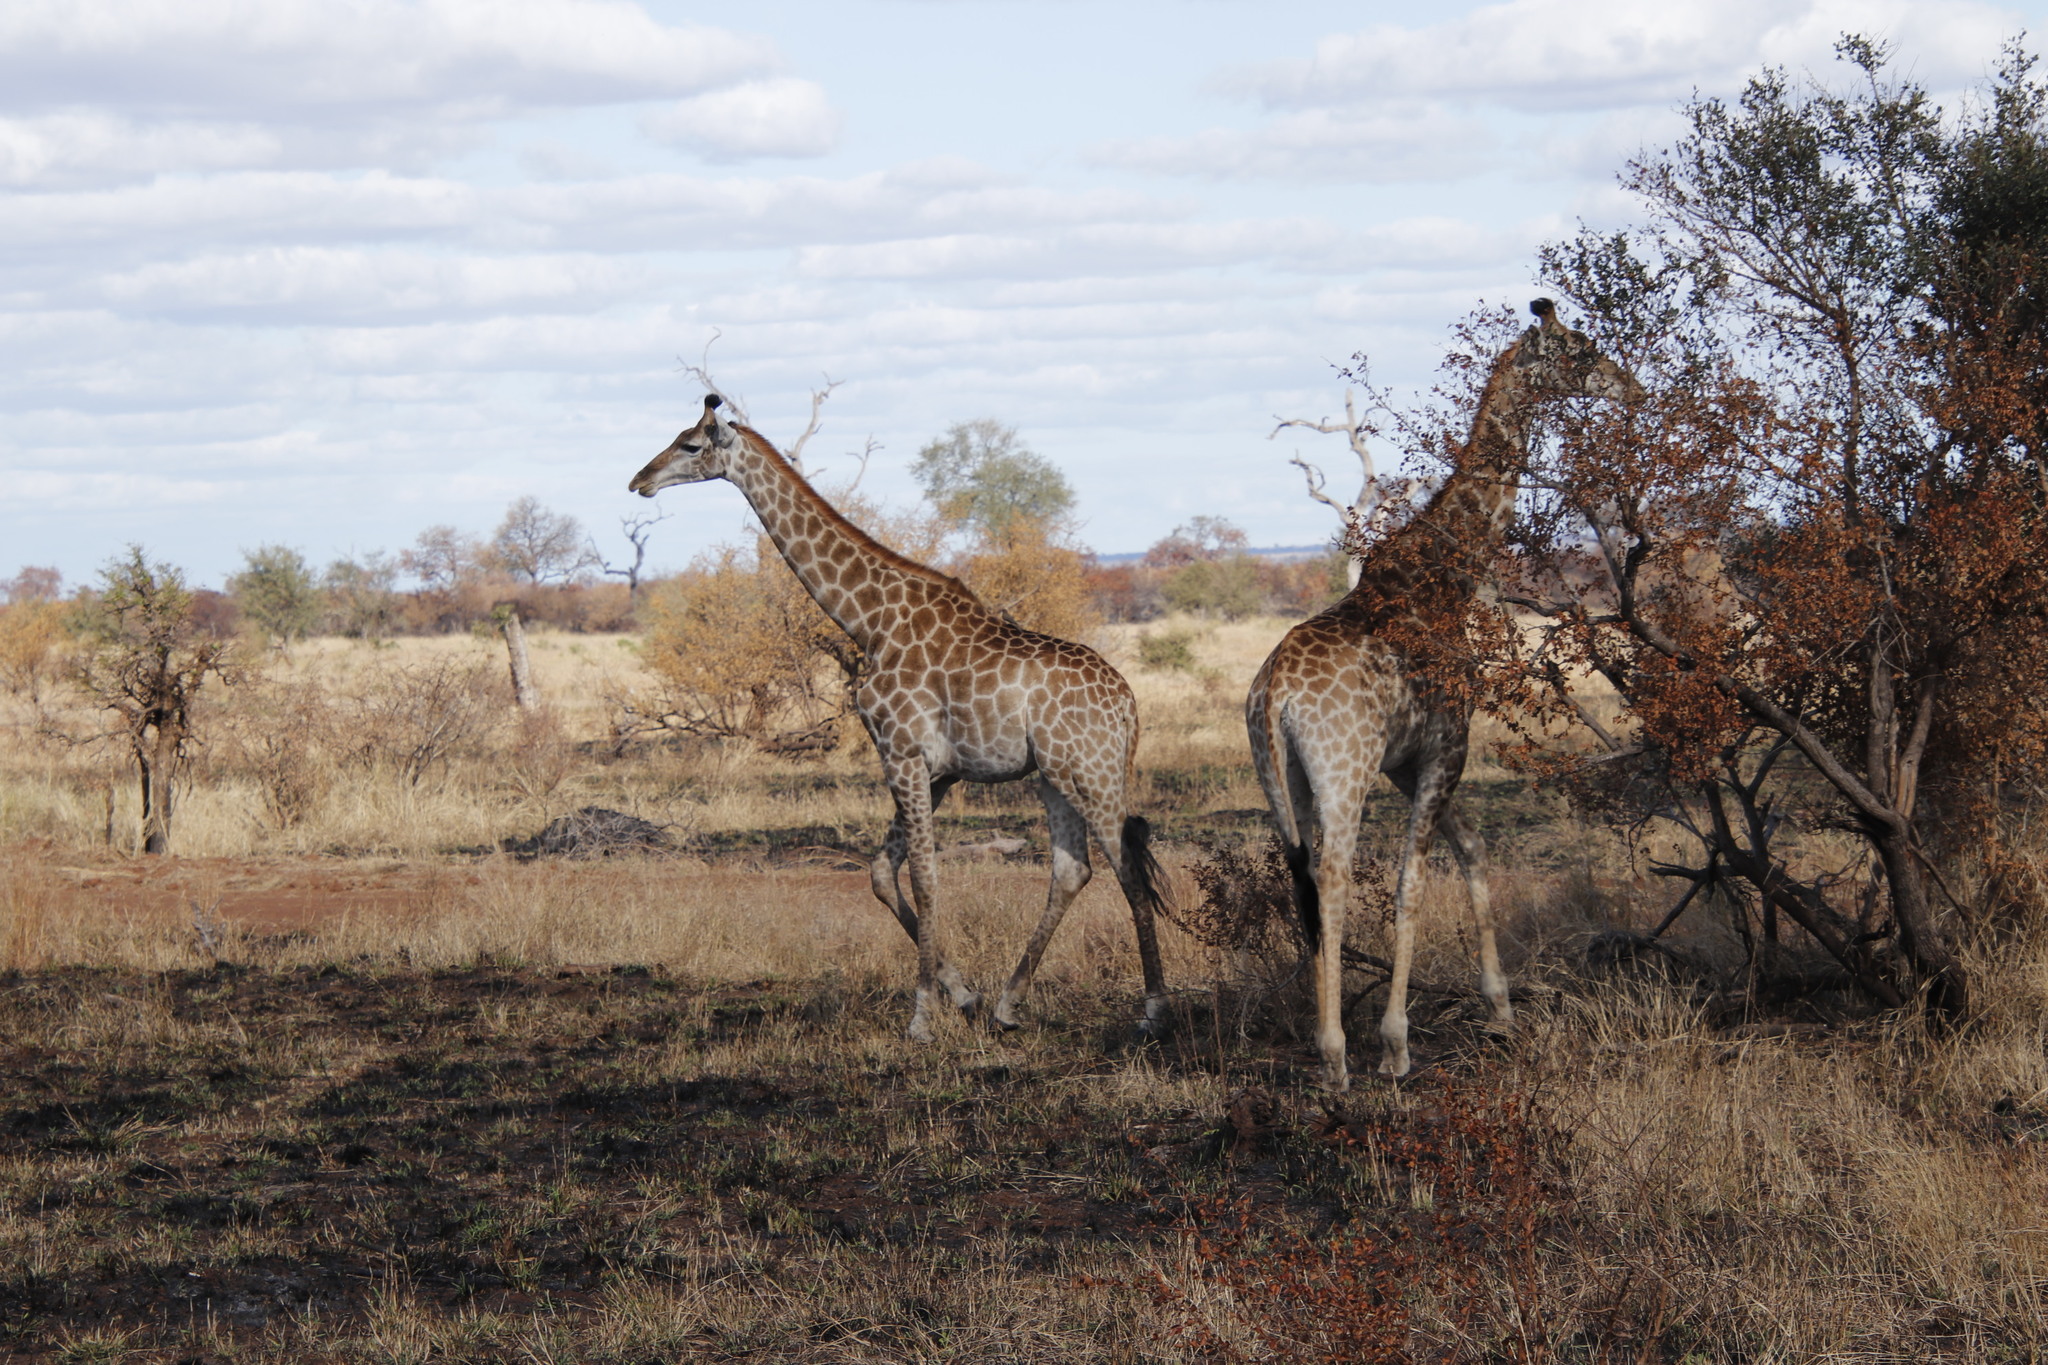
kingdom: Animalia
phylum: Chordata
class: Mammalia
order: Artiodactyla
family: Giraffidae
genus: Giraffa
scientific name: Giraffa giraffa
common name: Southern giraffe
